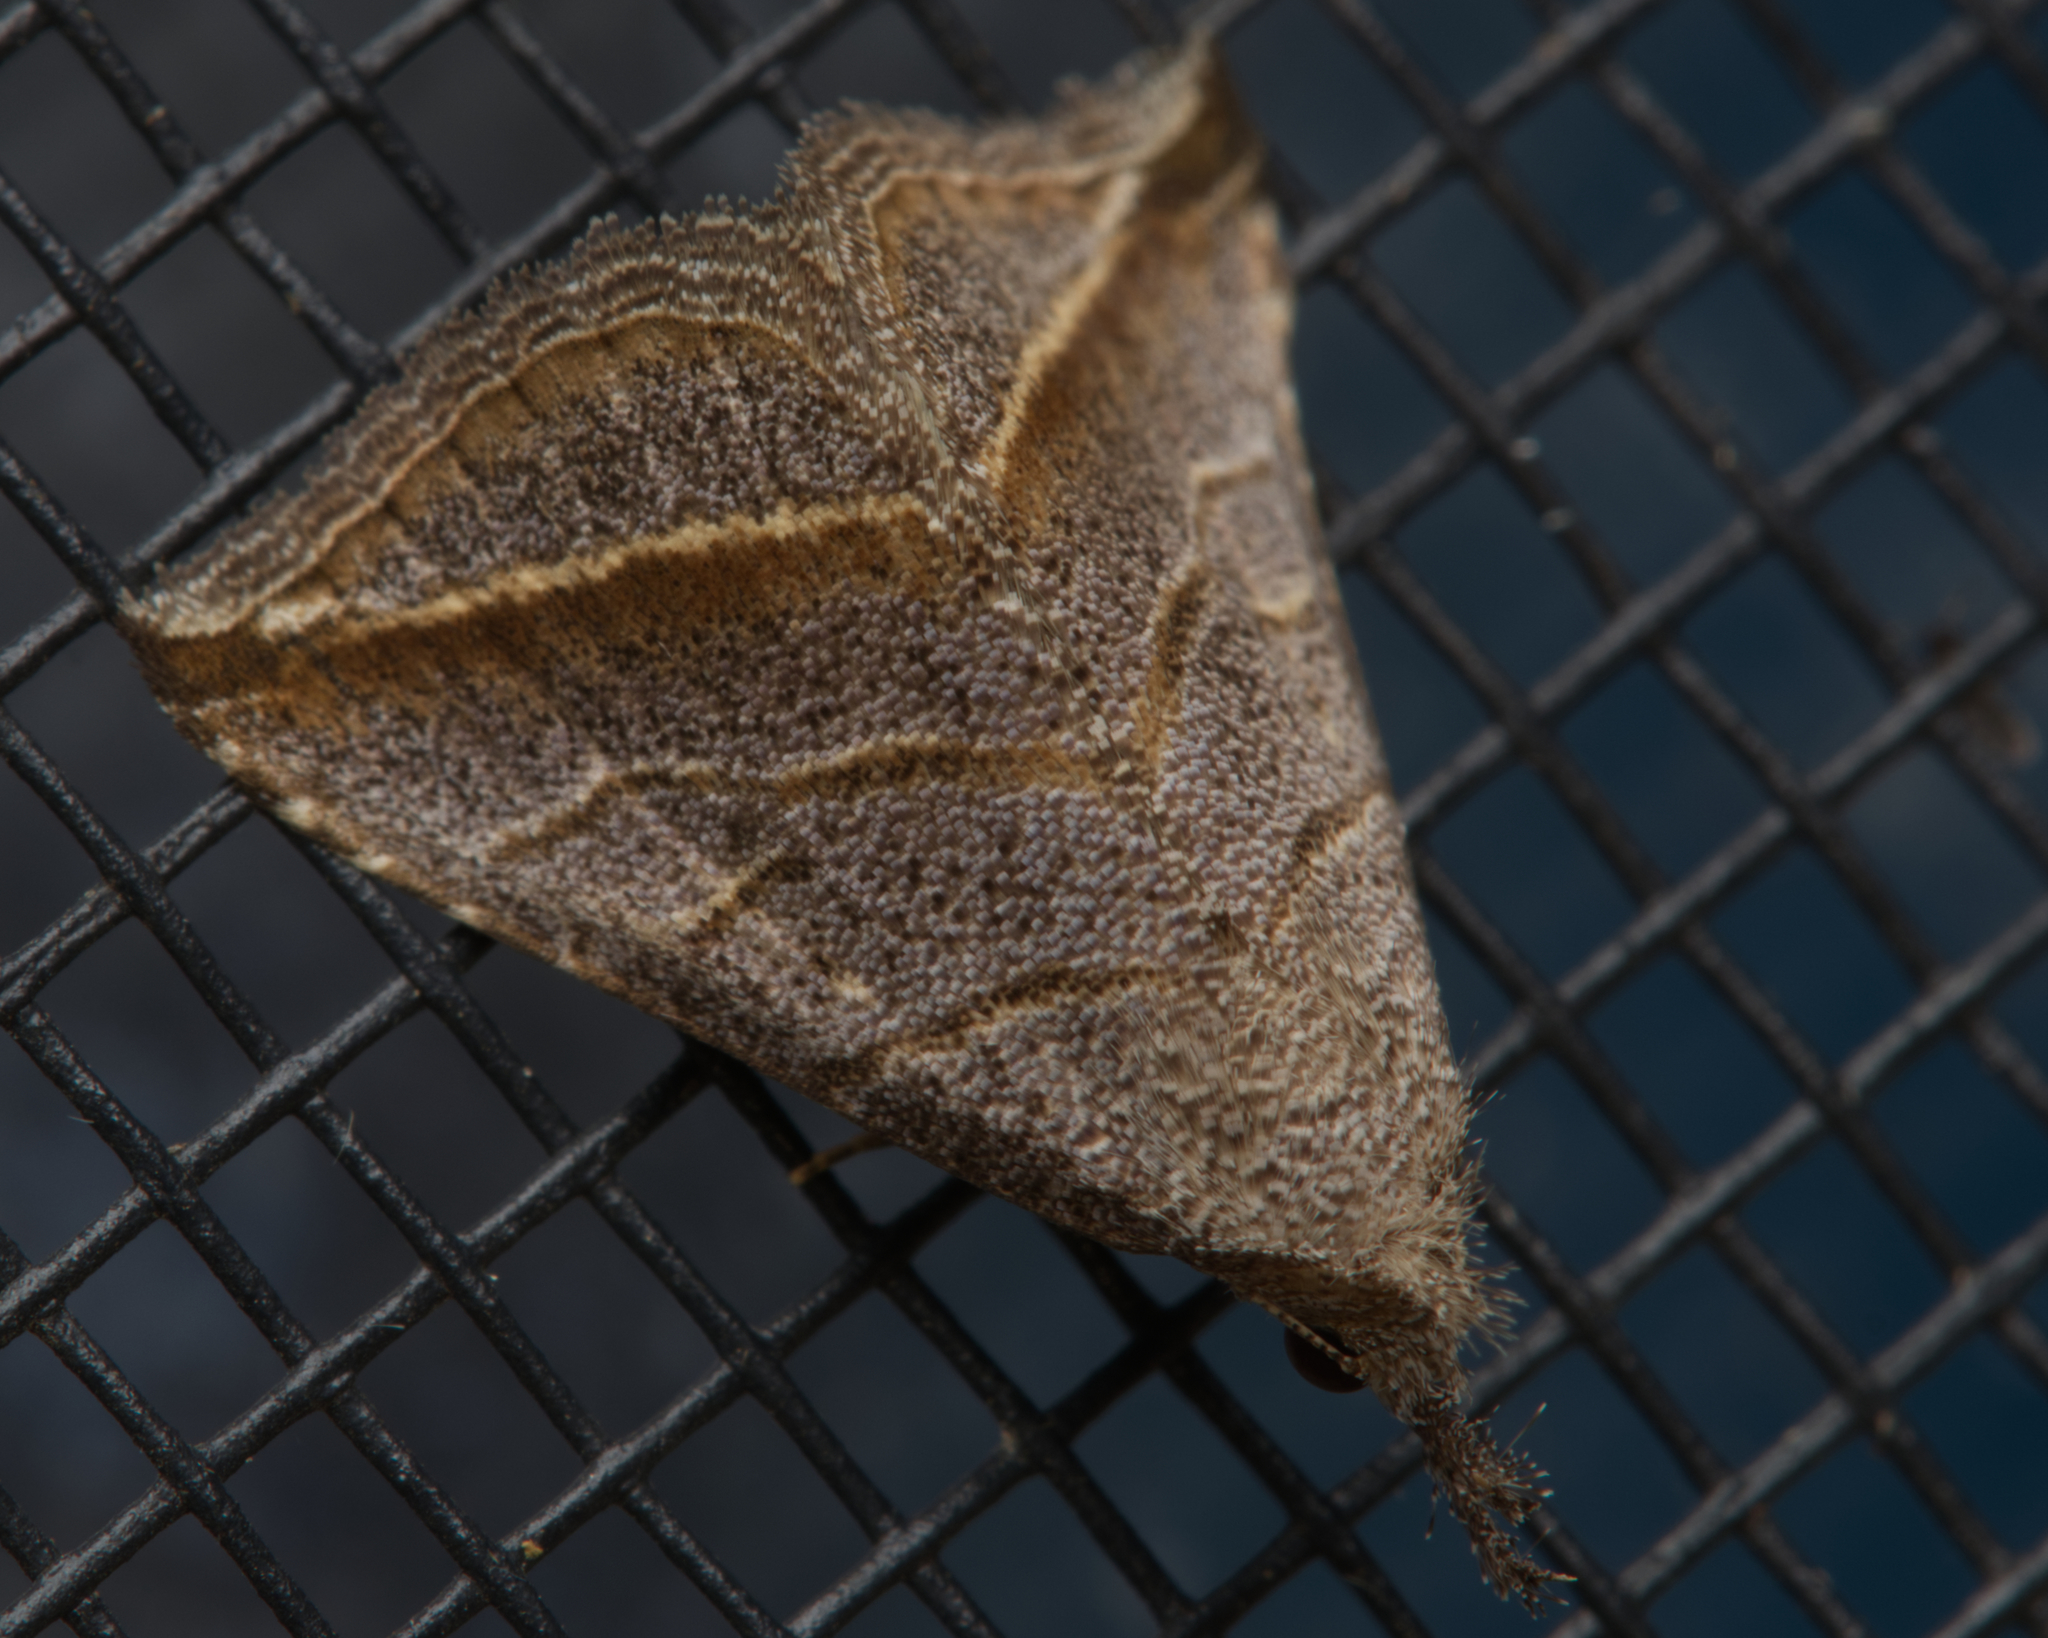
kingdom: Animalia
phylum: Arthropoda
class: Insecta
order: Lepidoptera
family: Erebidae
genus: Britha
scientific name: Britha biguttata
